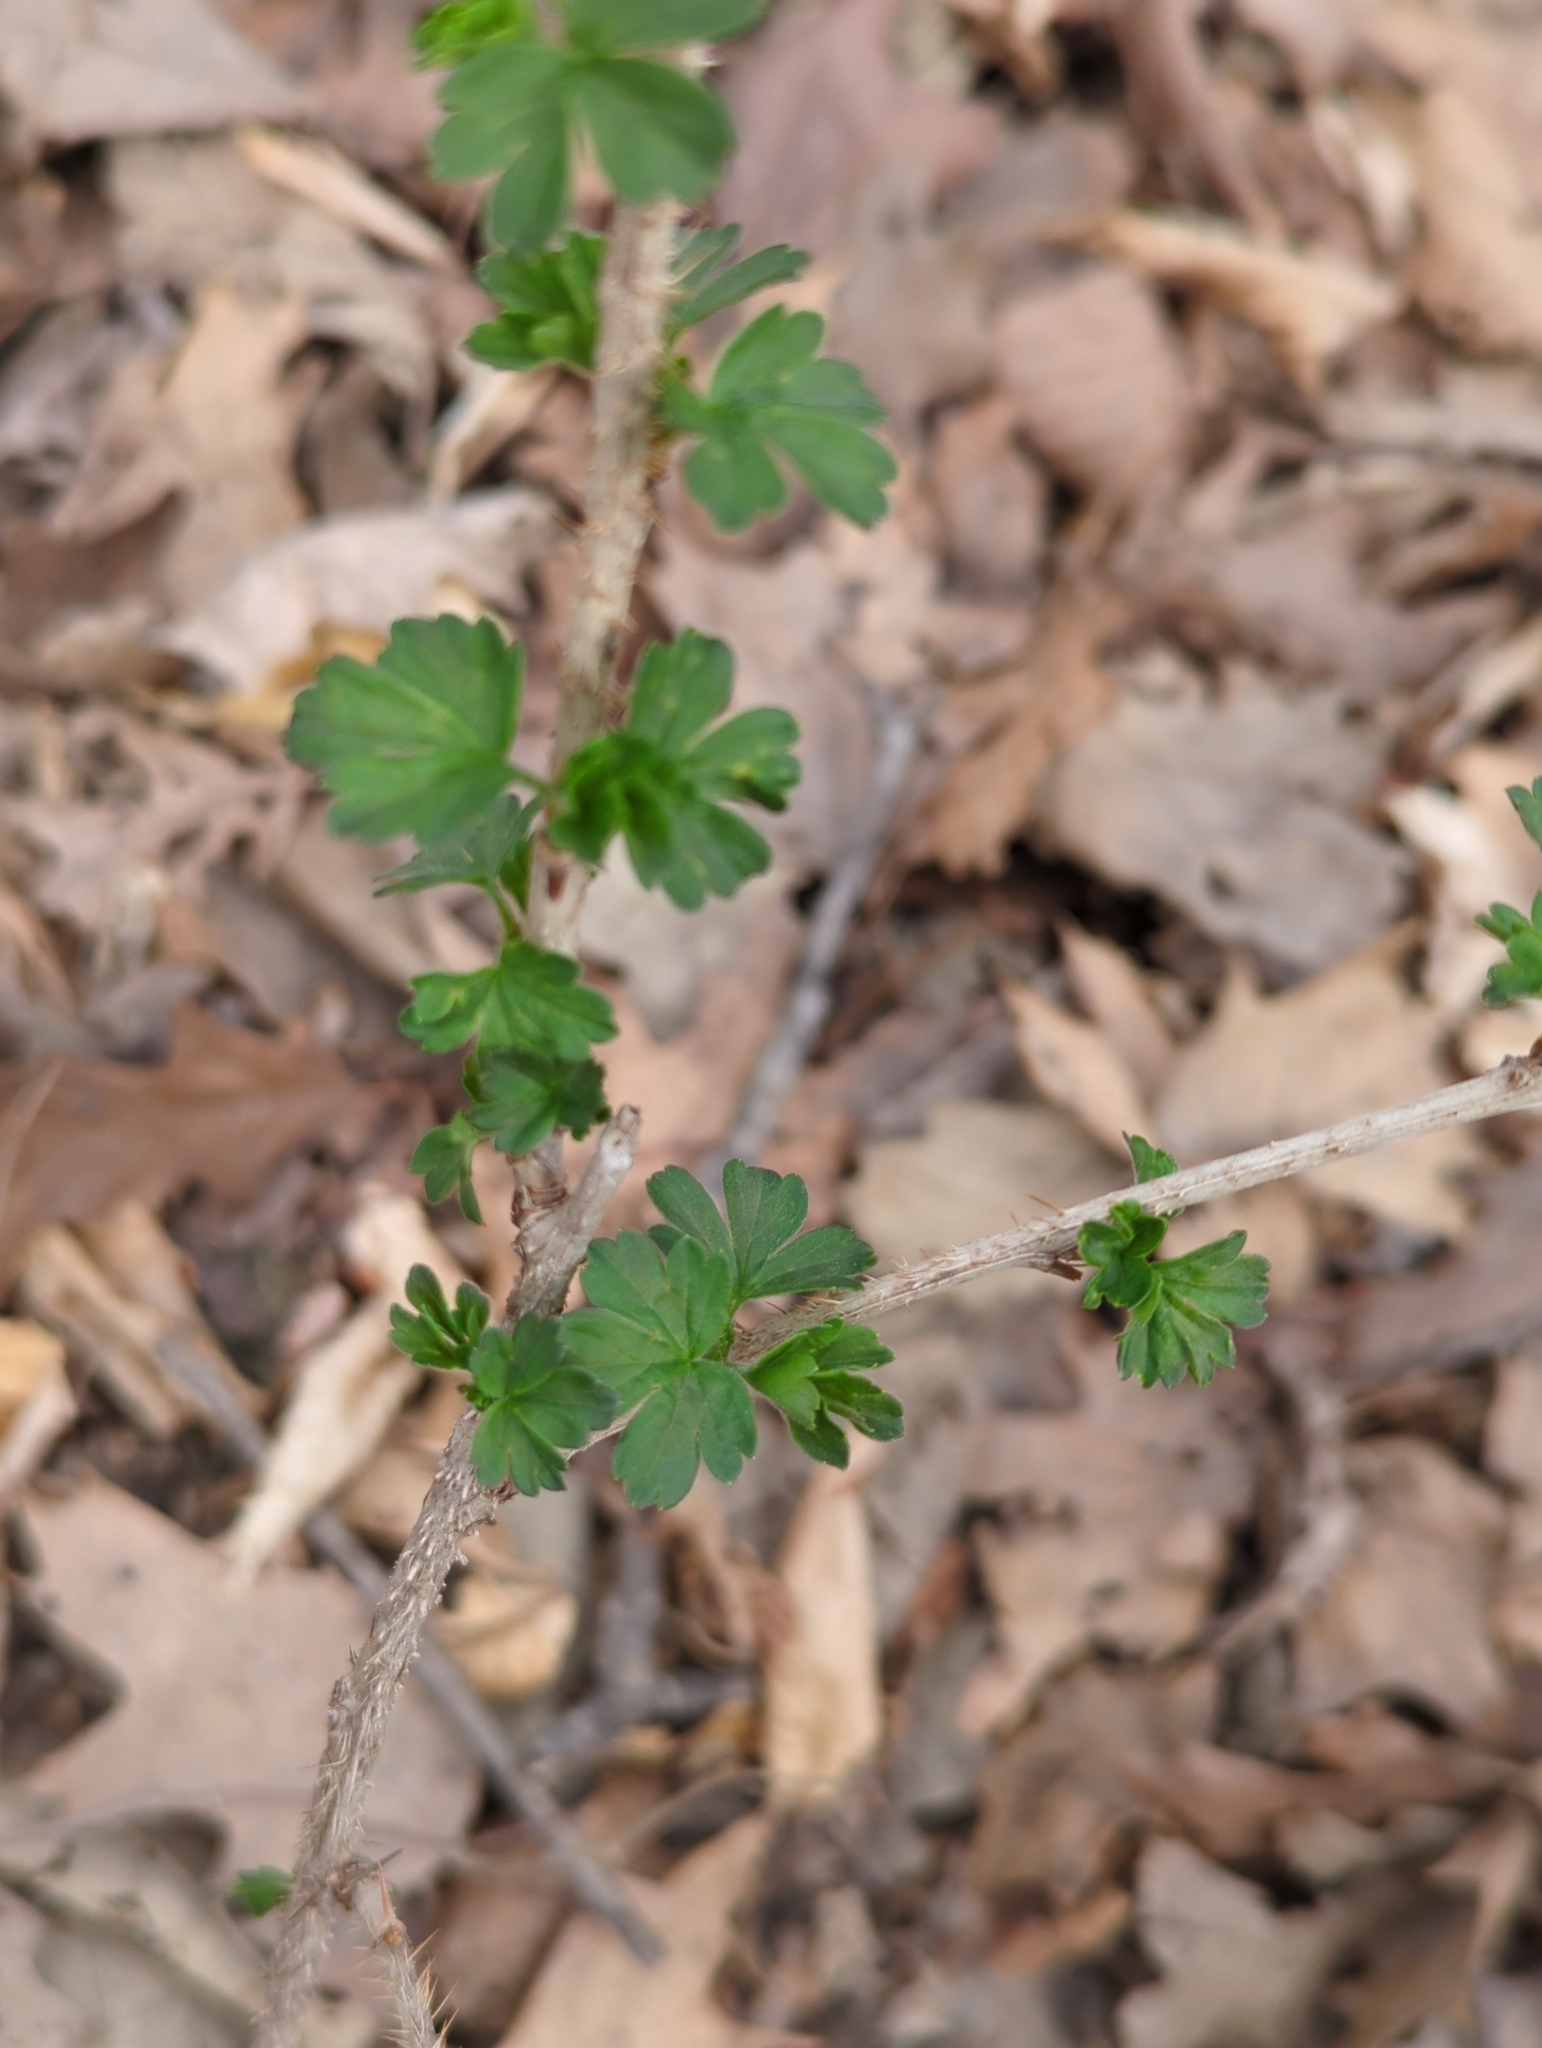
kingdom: Plantae
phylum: Tracheophyta
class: Magnoliopsida
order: Saxifragales
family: Grossulariaceae
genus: Ribes
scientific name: Ribes missouriense
